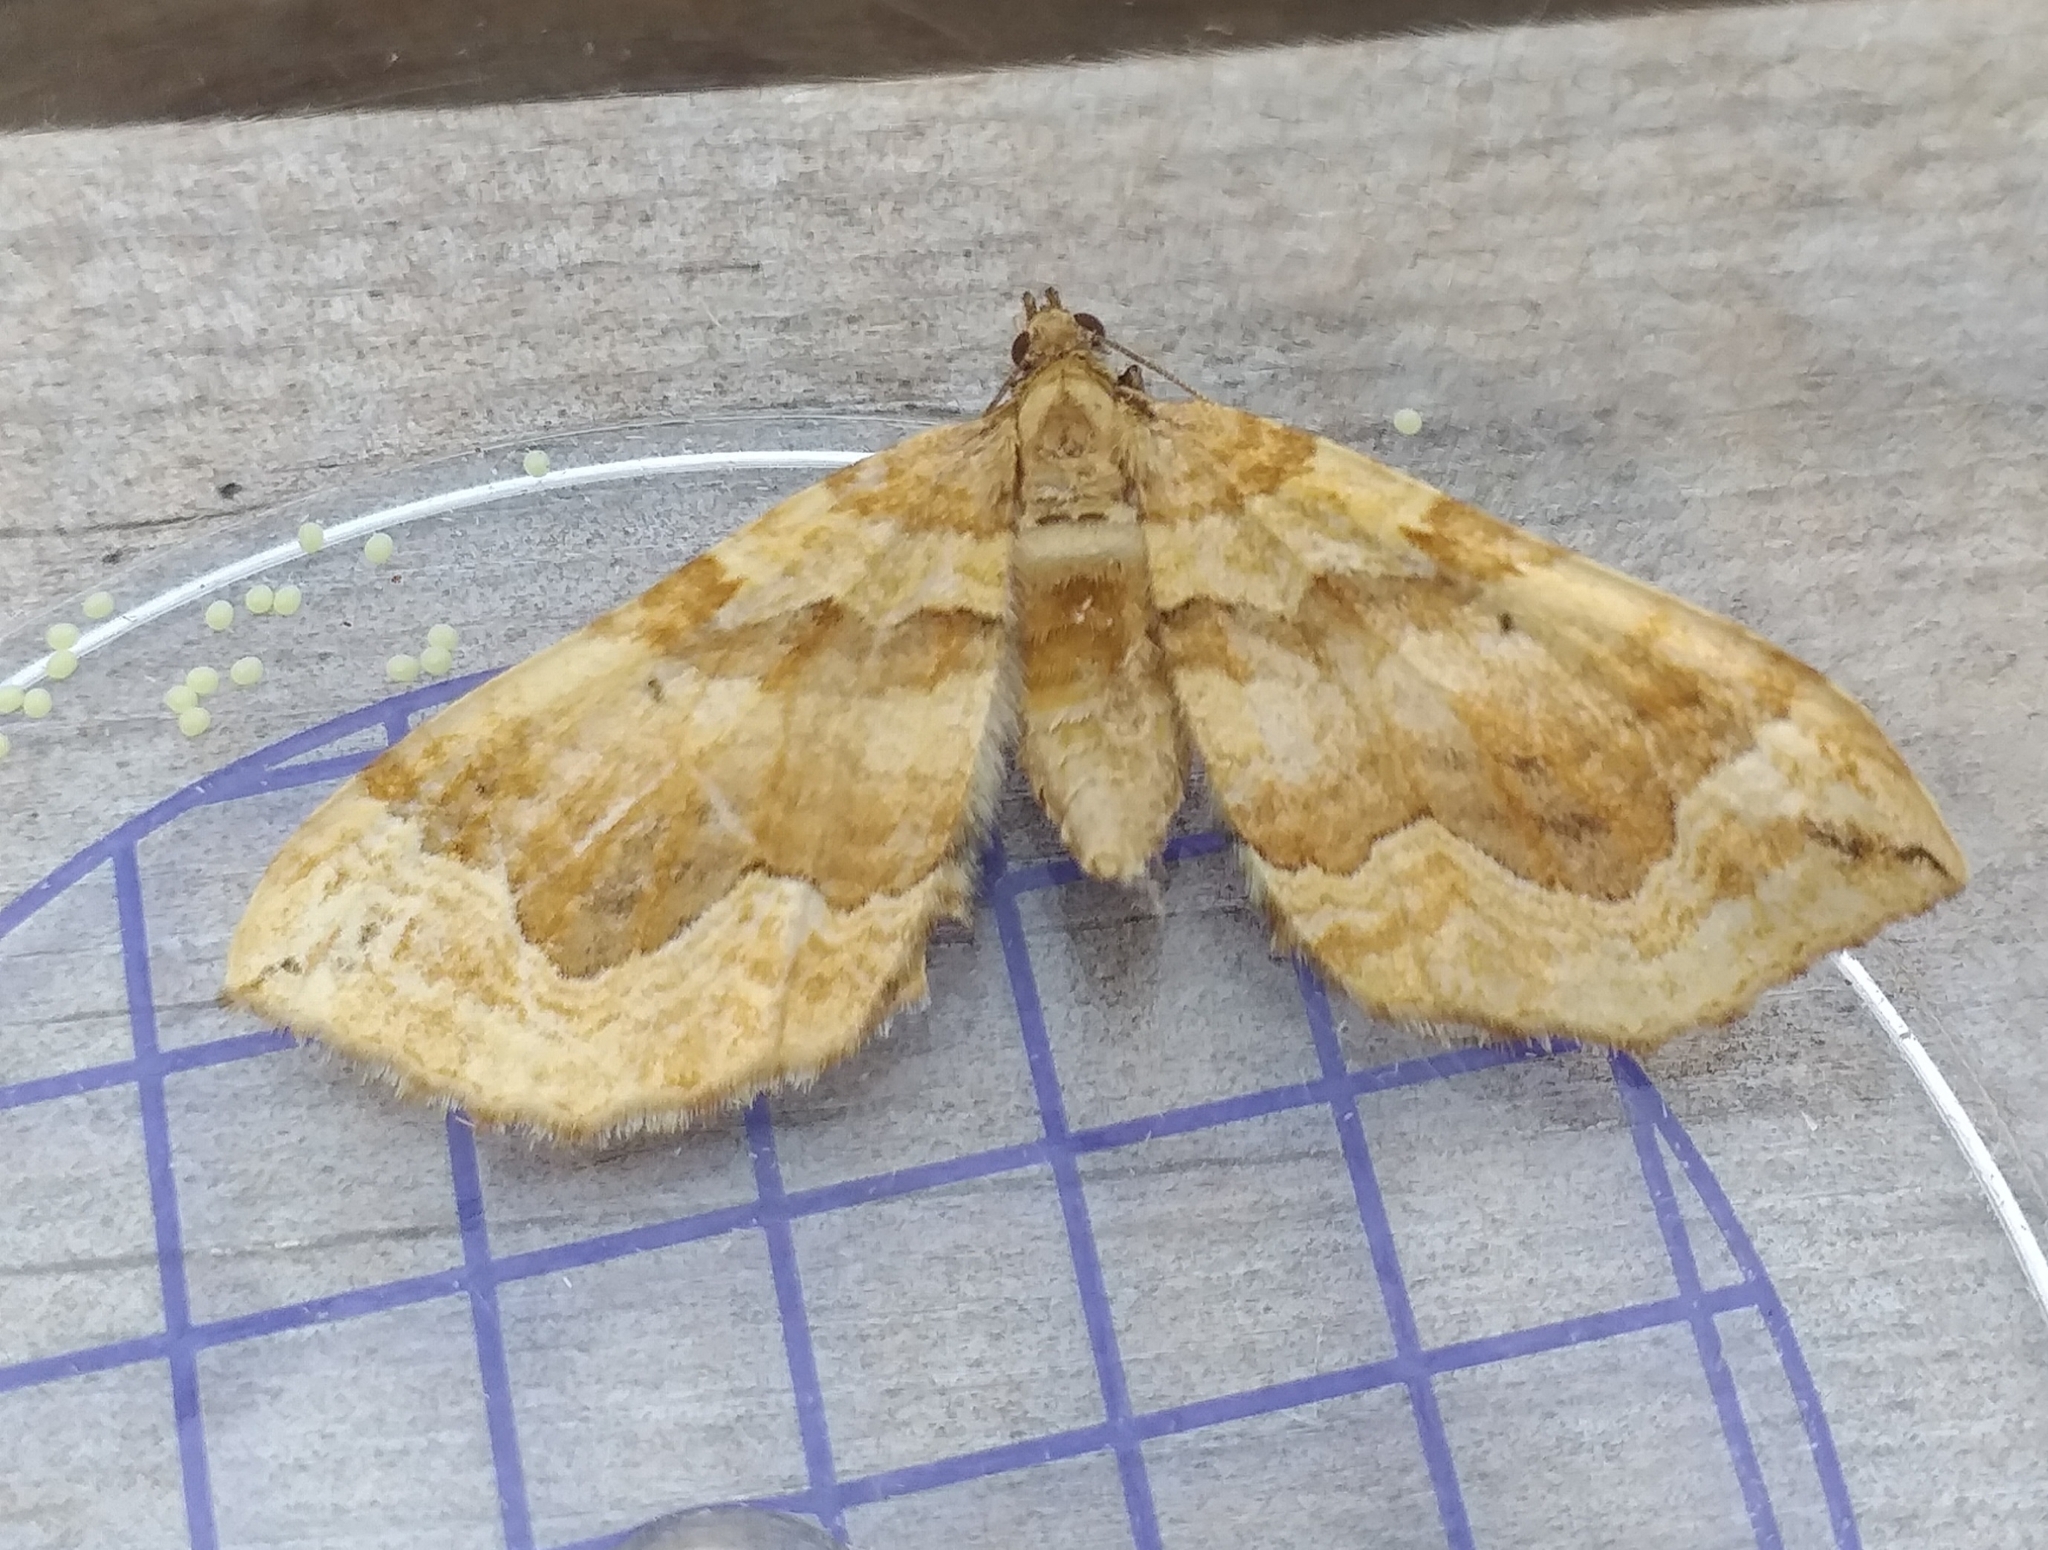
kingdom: Animalia
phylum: Arthropoda
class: Insecta
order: Lepidoptera
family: Geometridae
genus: Pelurga
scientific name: Pelurga comitata
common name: Dark spinach
